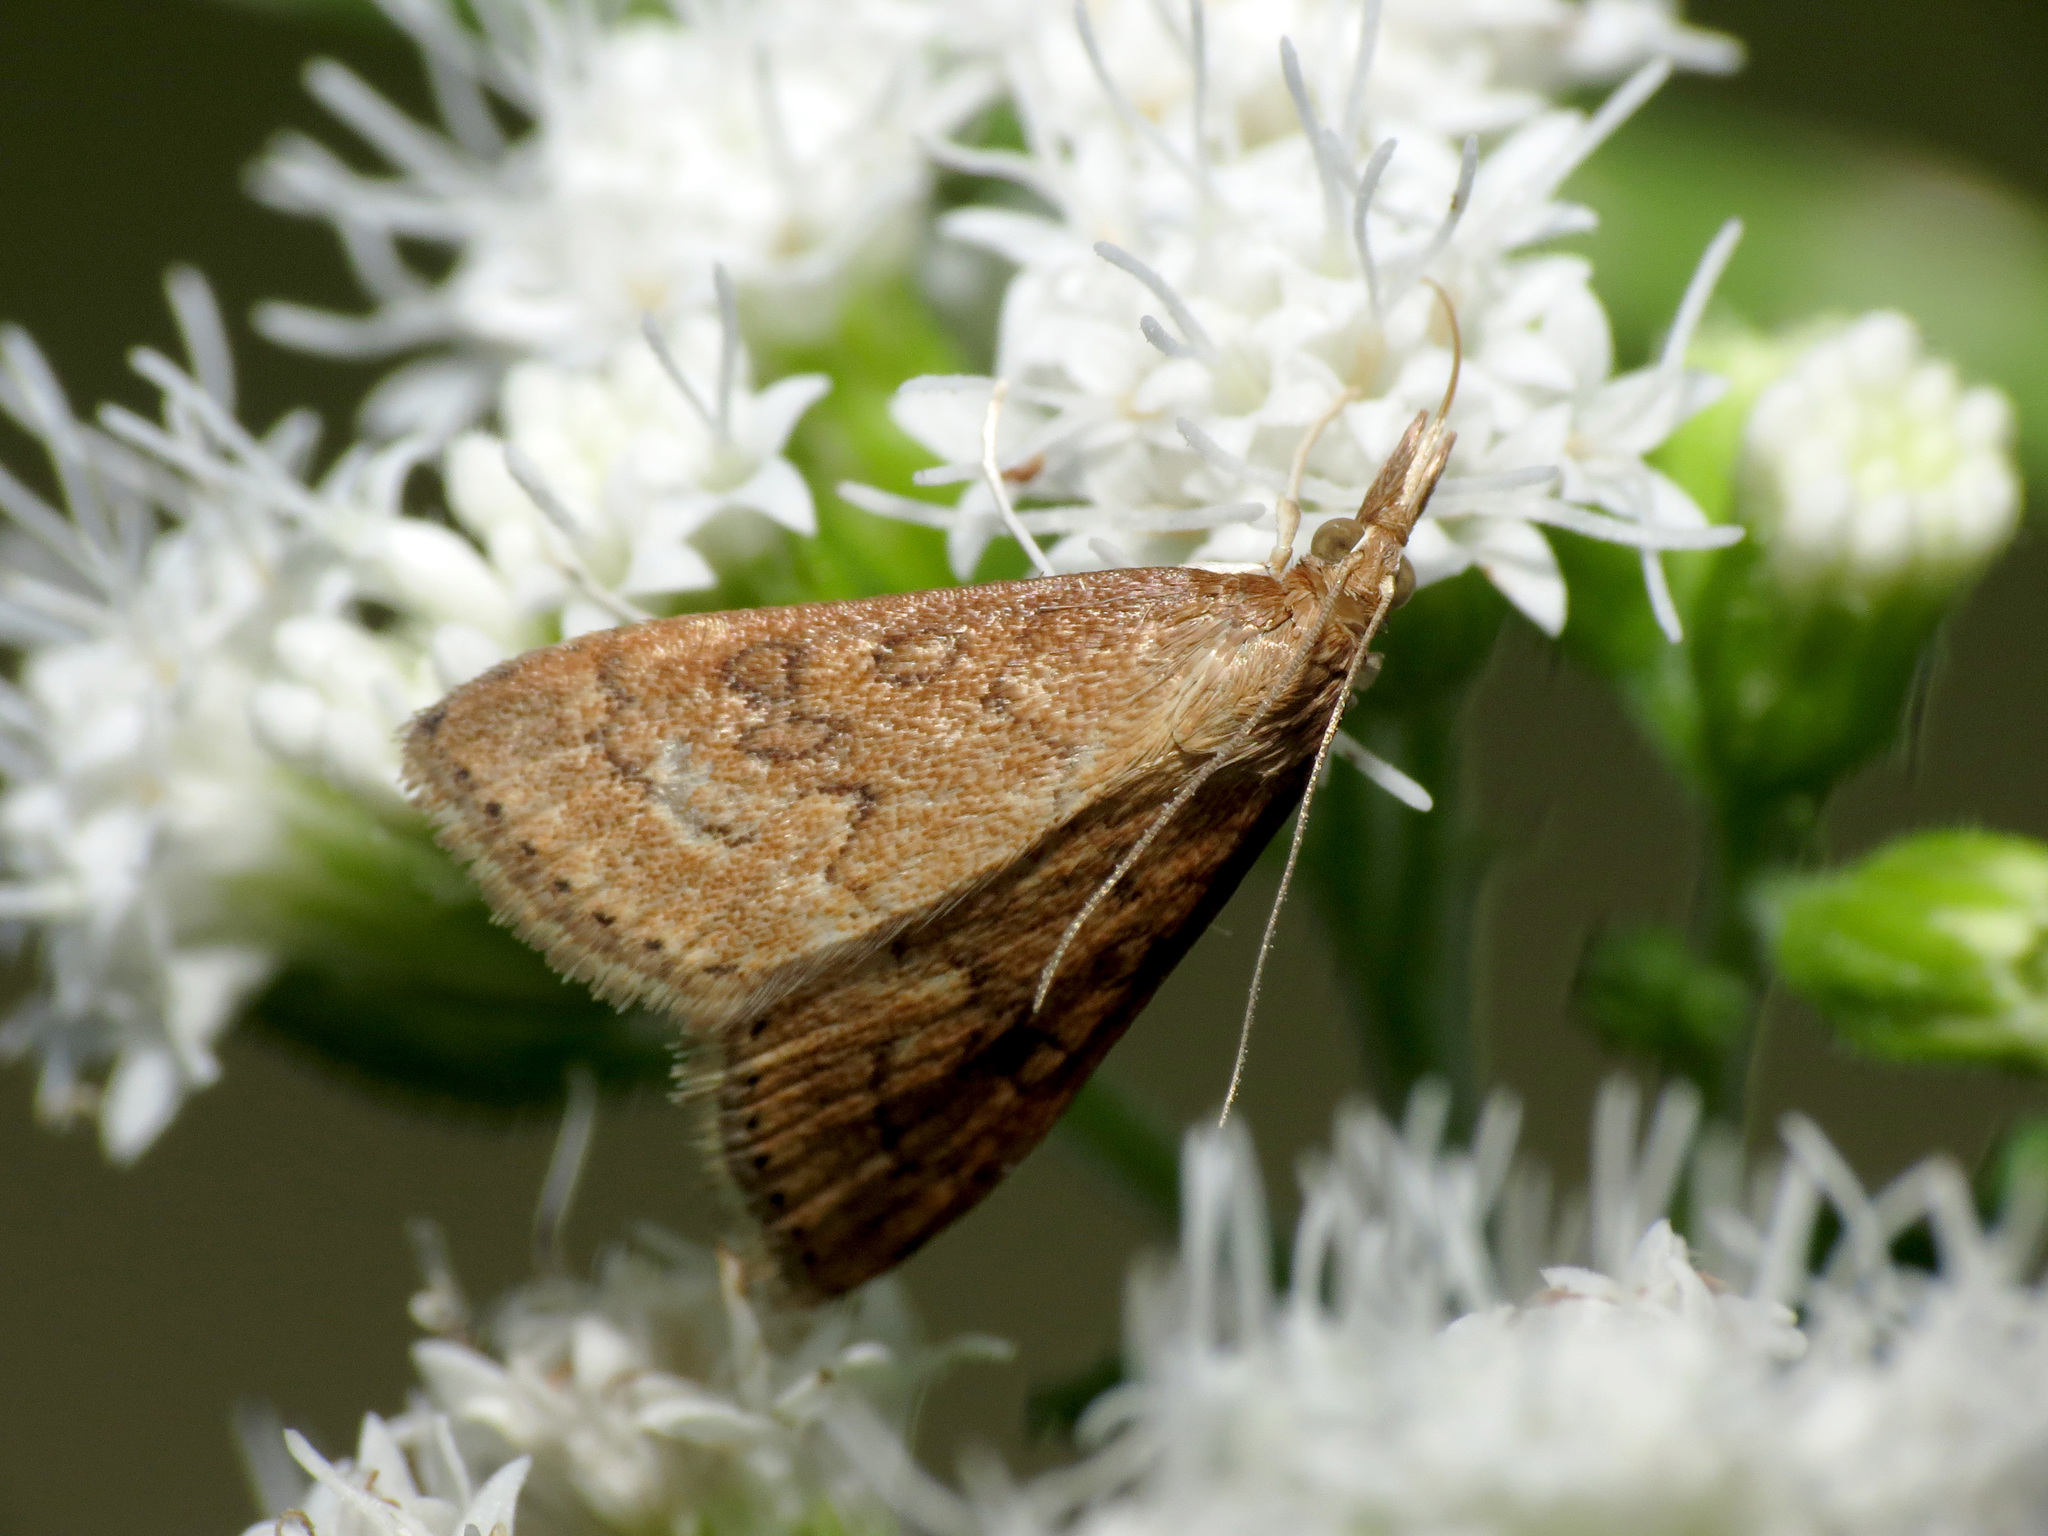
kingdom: Animalia
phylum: Arthropoda
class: Insecta
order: Lepidoptera
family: Crambidae
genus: Udea
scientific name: Udea rubigalis
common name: Celery leaftier moth
